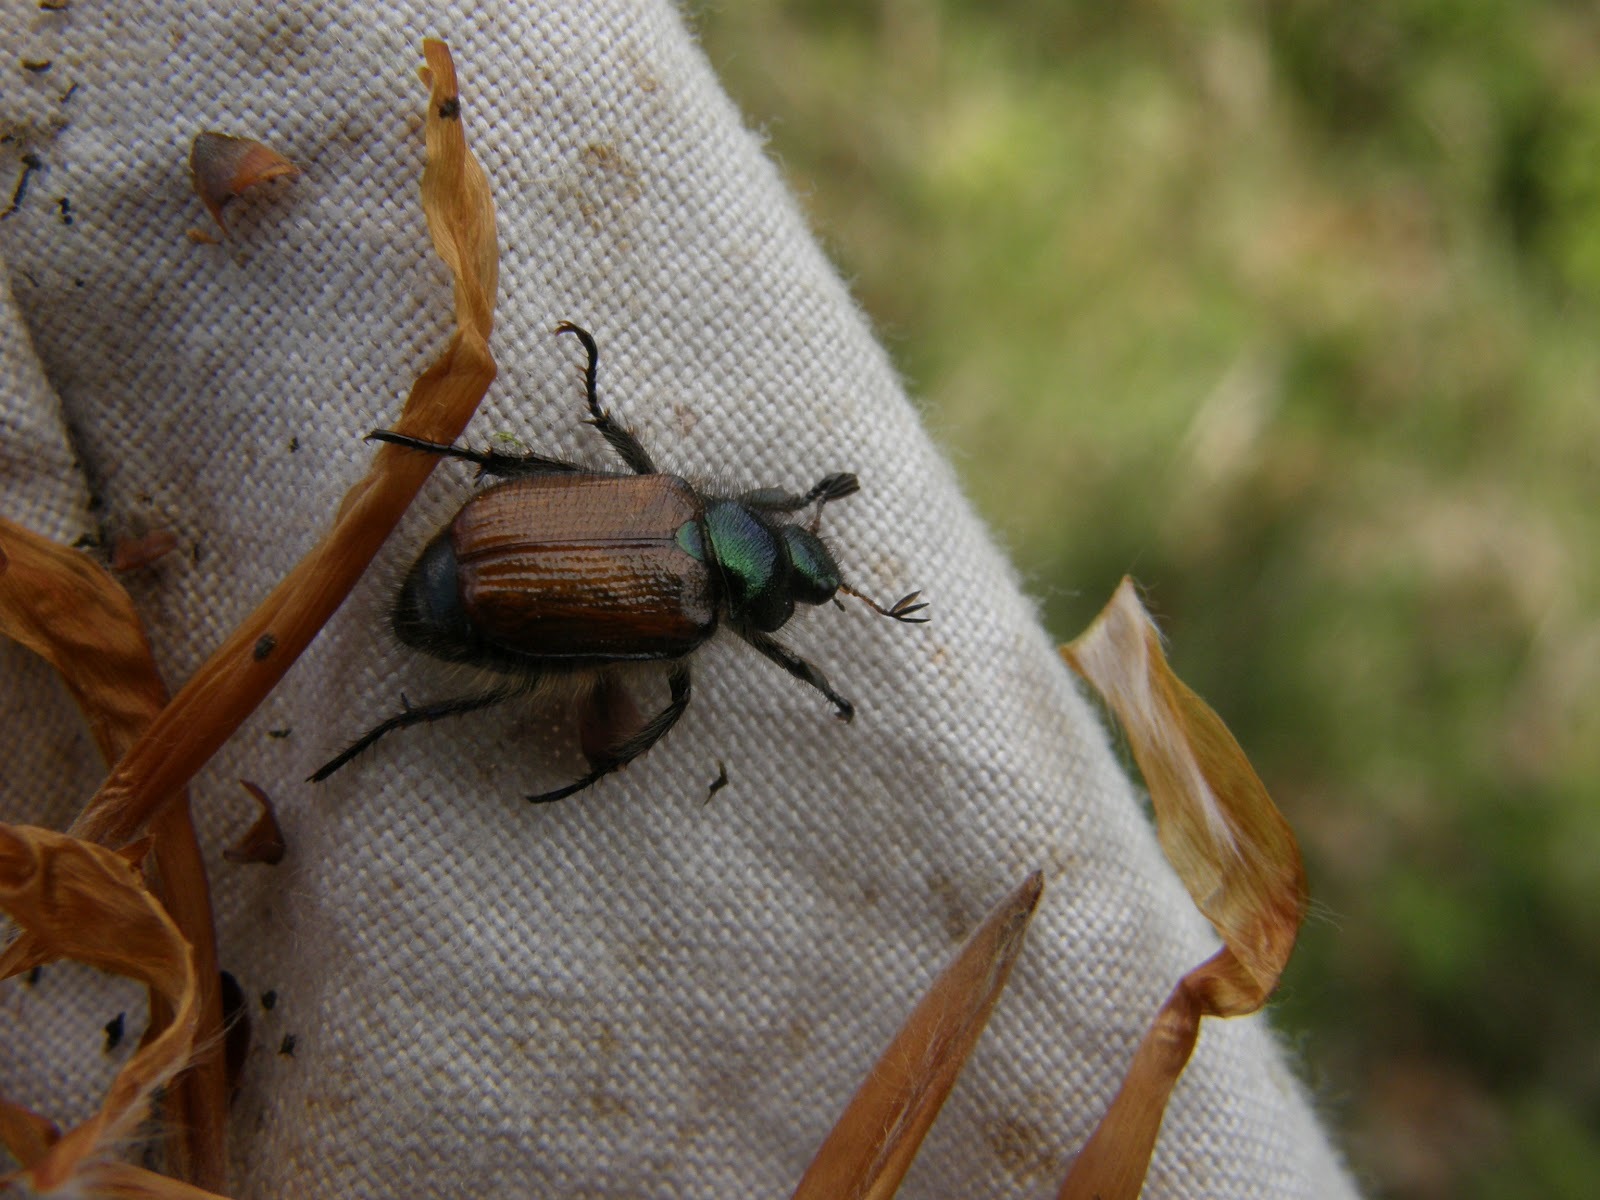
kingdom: Animalia
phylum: Arthropoda
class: Insecta
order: Coleoptera
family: Scarabaeidae
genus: Phyllopertha
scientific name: Phyllopertha horticola
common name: Garden chafer
